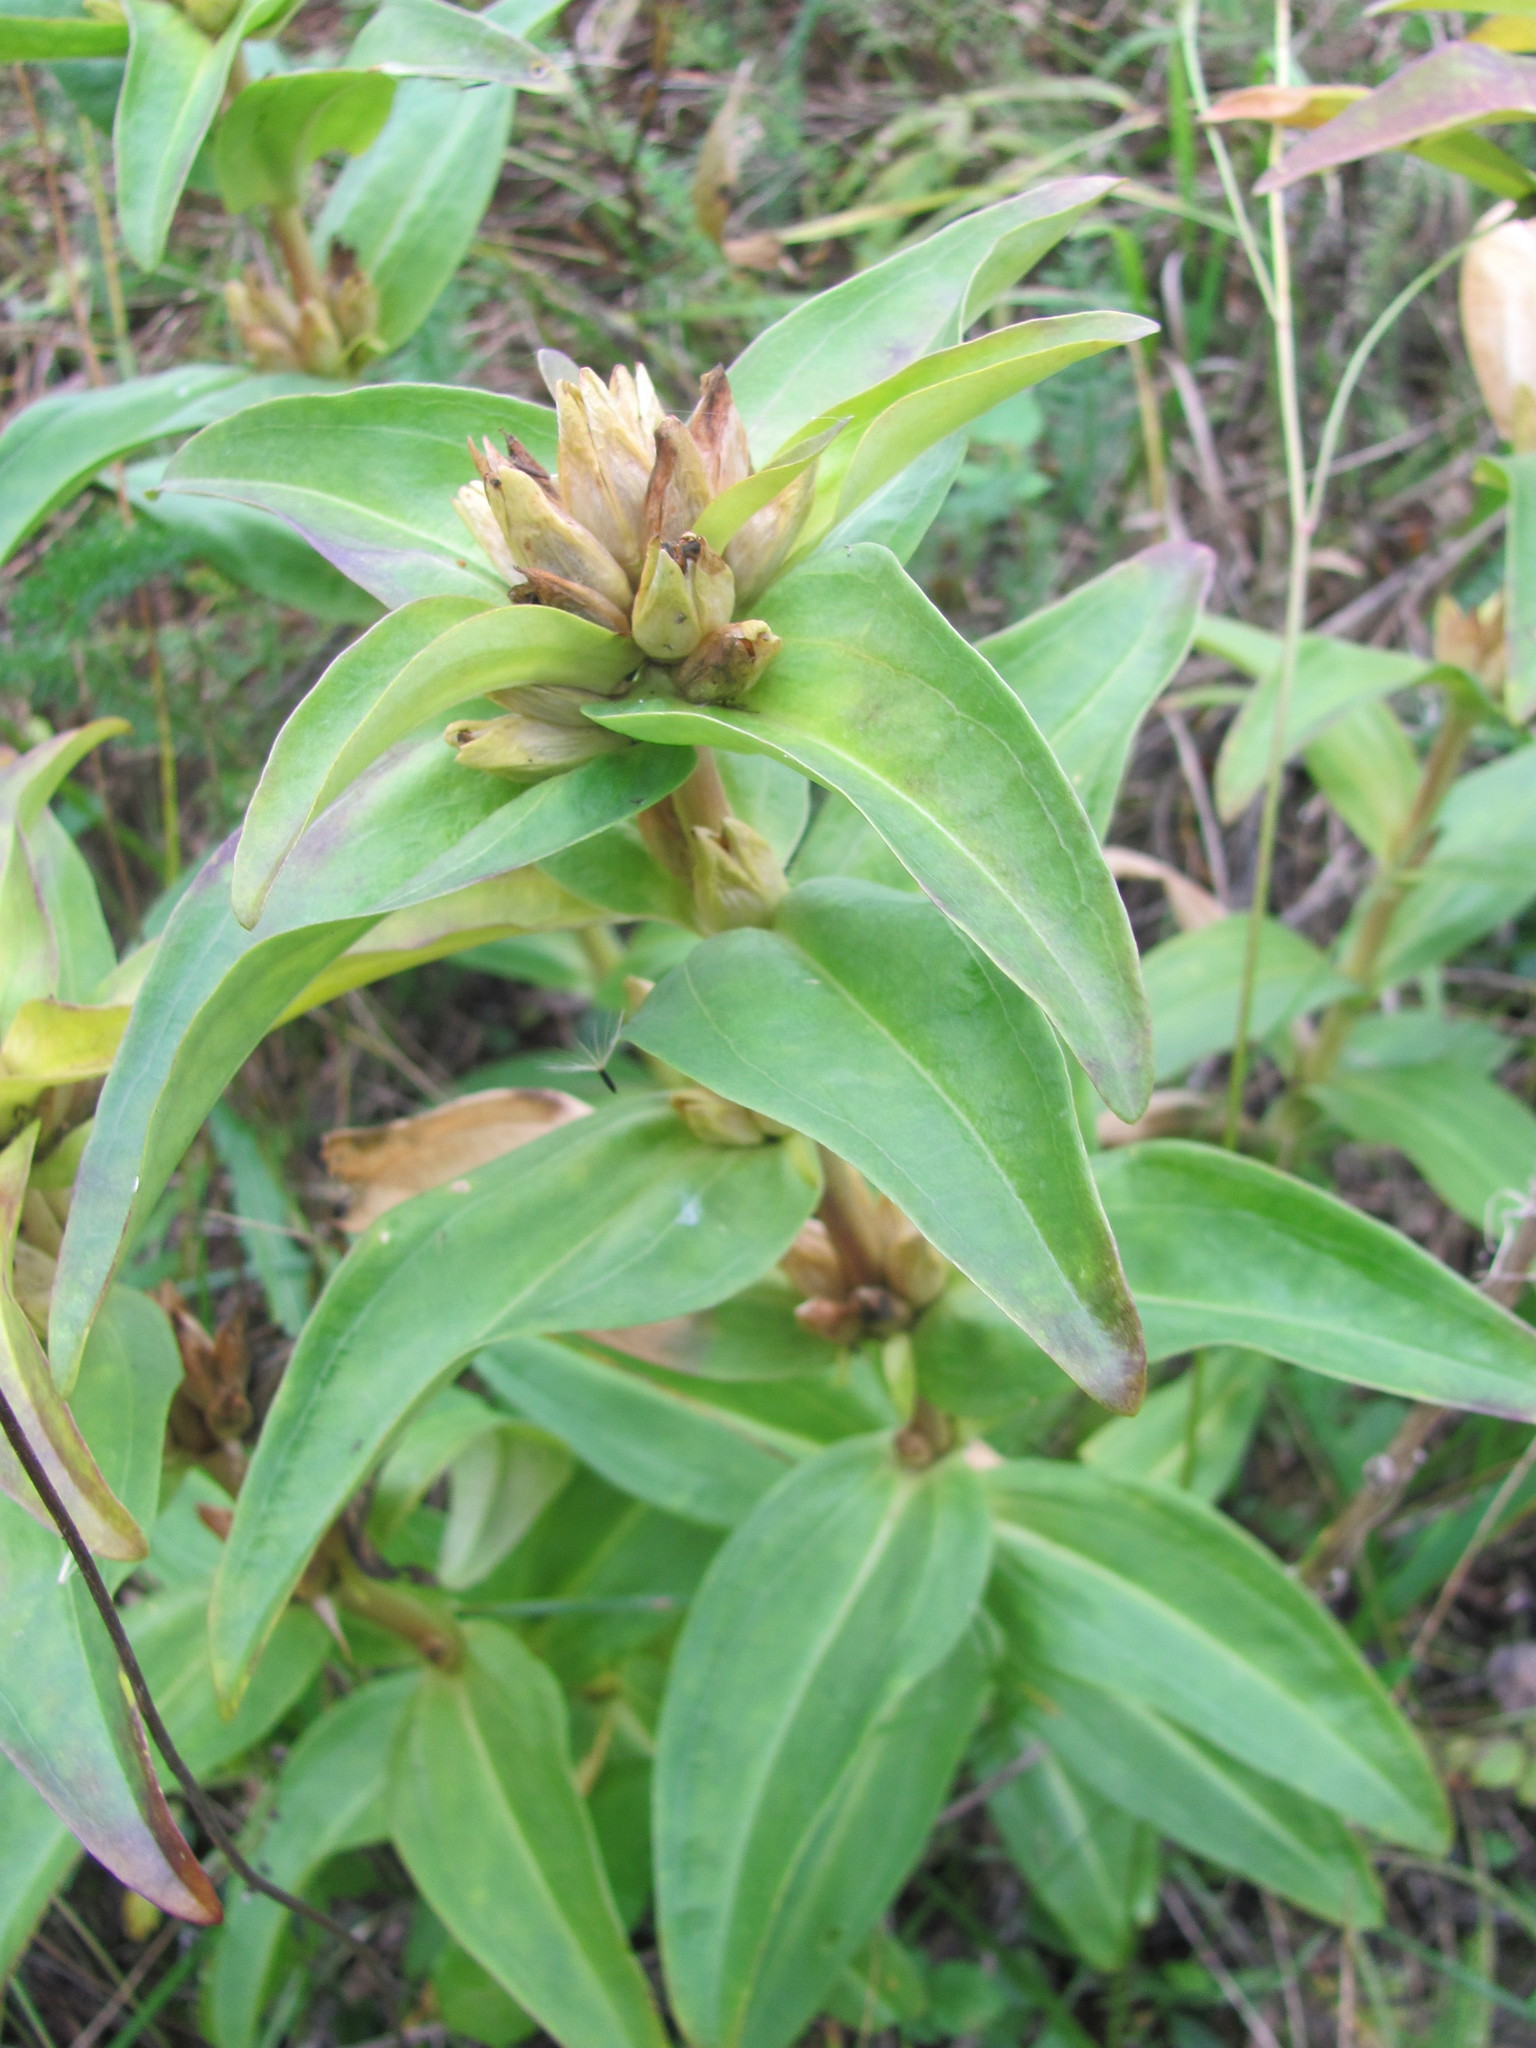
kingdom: Plantae
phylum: Tracheophyta
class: Magnoliopsida
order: Gentianales
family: Gentianaceae
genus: Gentiana
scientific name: Gentiana cruciata
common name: Cross gentian
